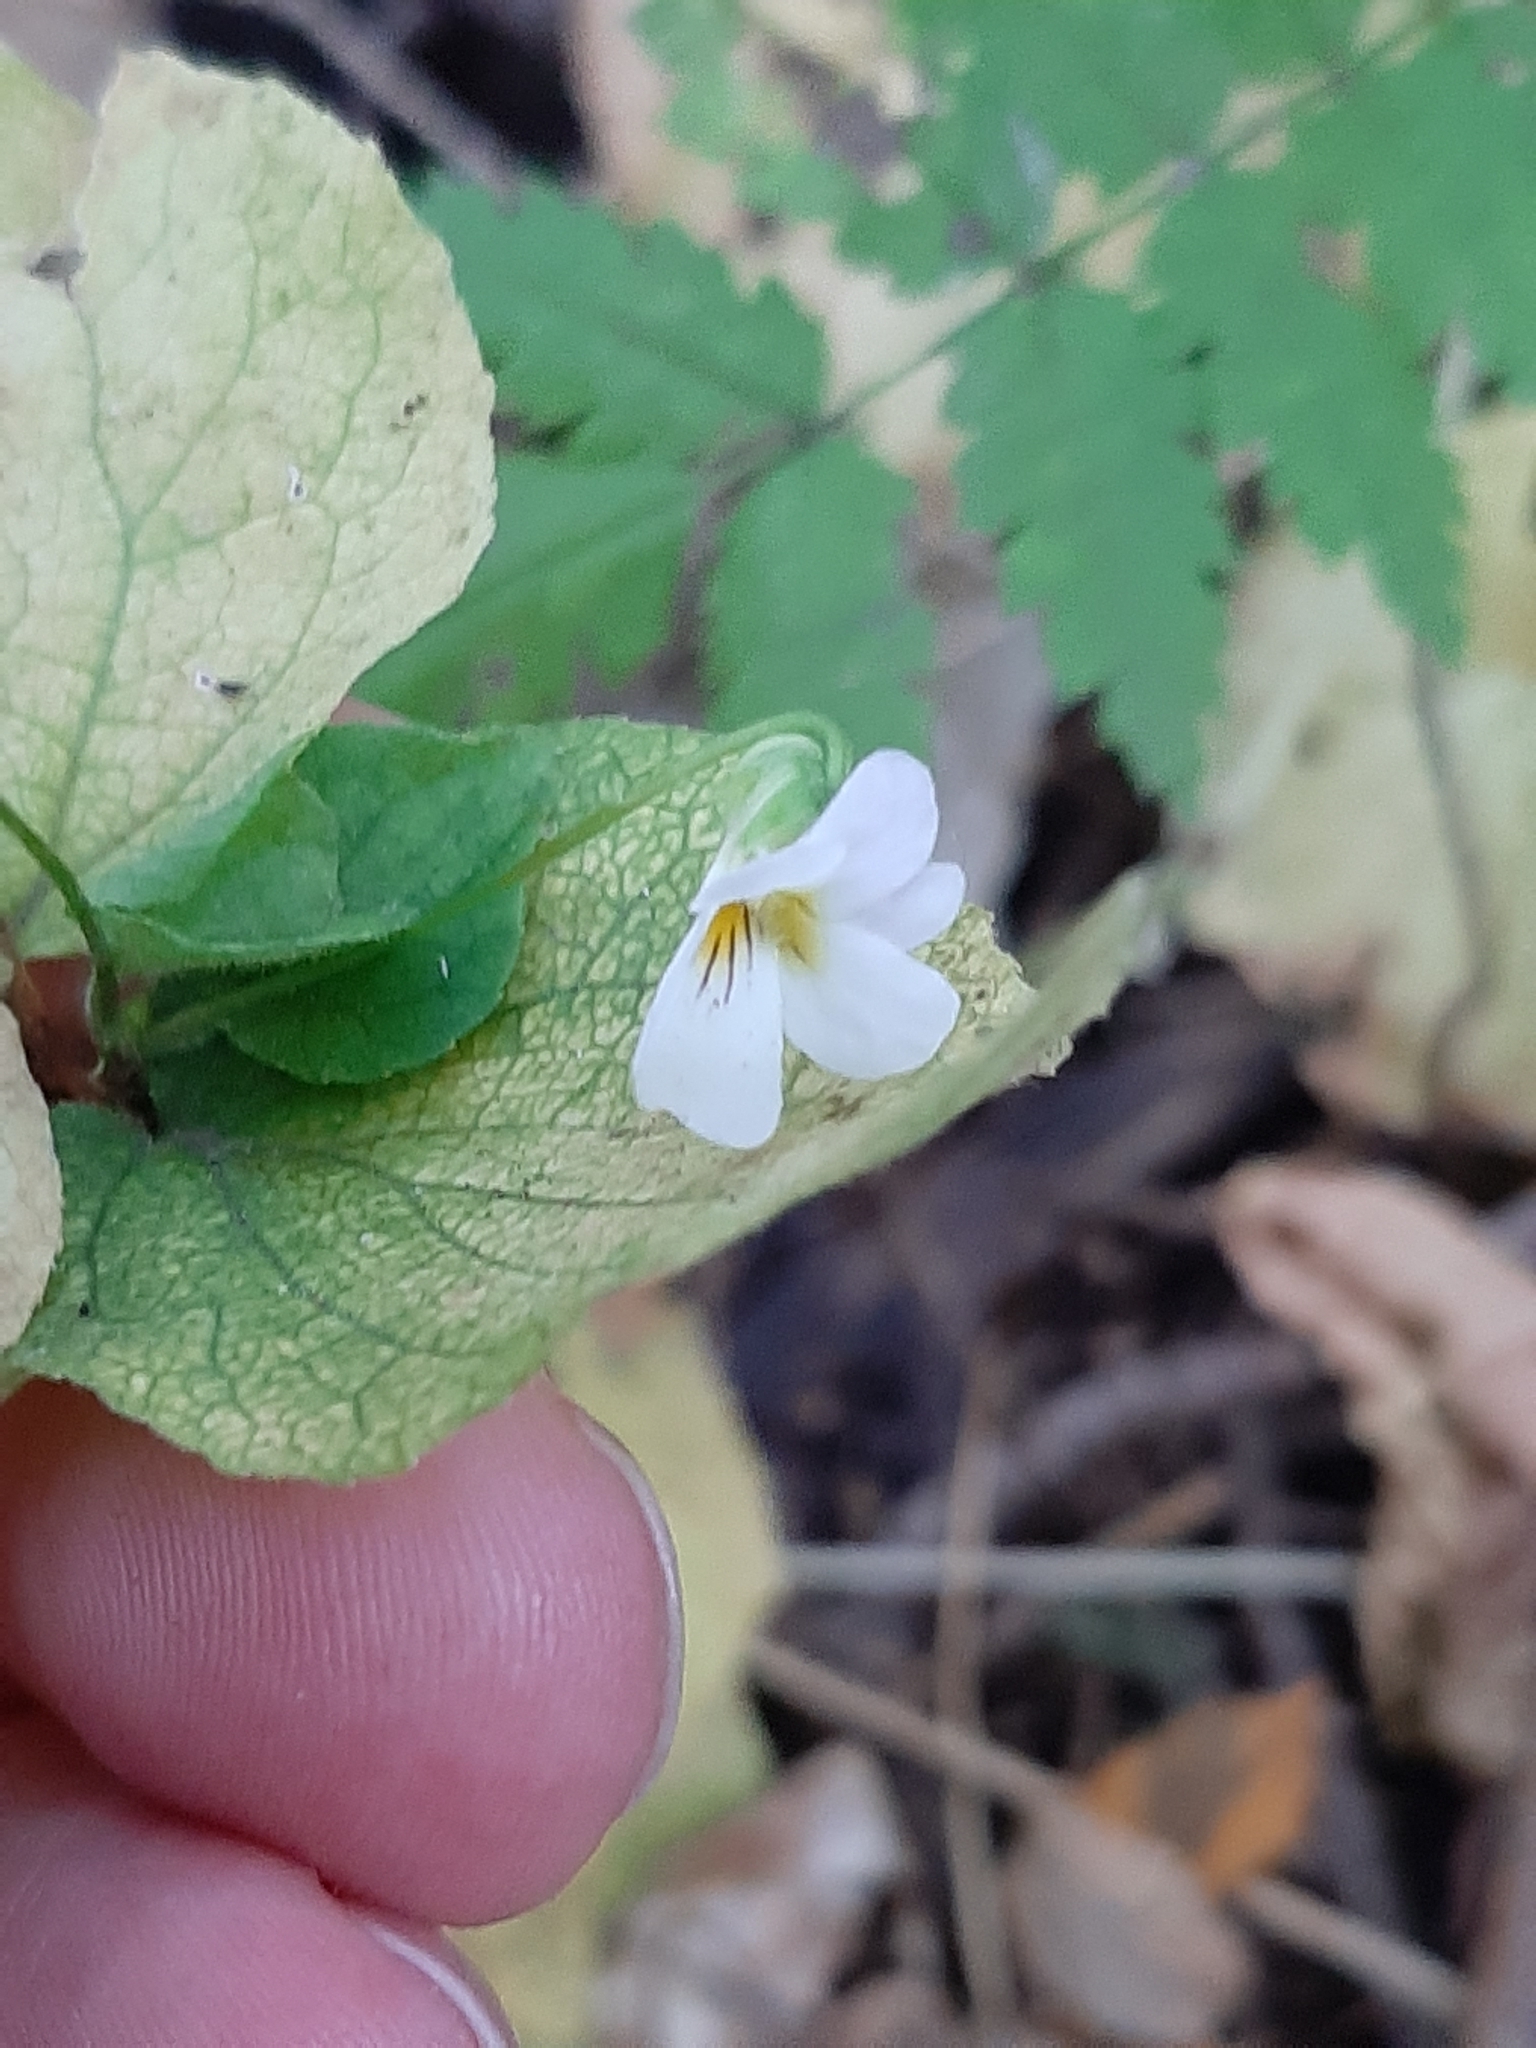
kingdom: Plantae
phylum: Tracheophyta
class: Magnoliopsida
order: Malpighiales
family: Violaceae
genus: Viola
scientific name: Viola canadensis
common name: Canada violet
